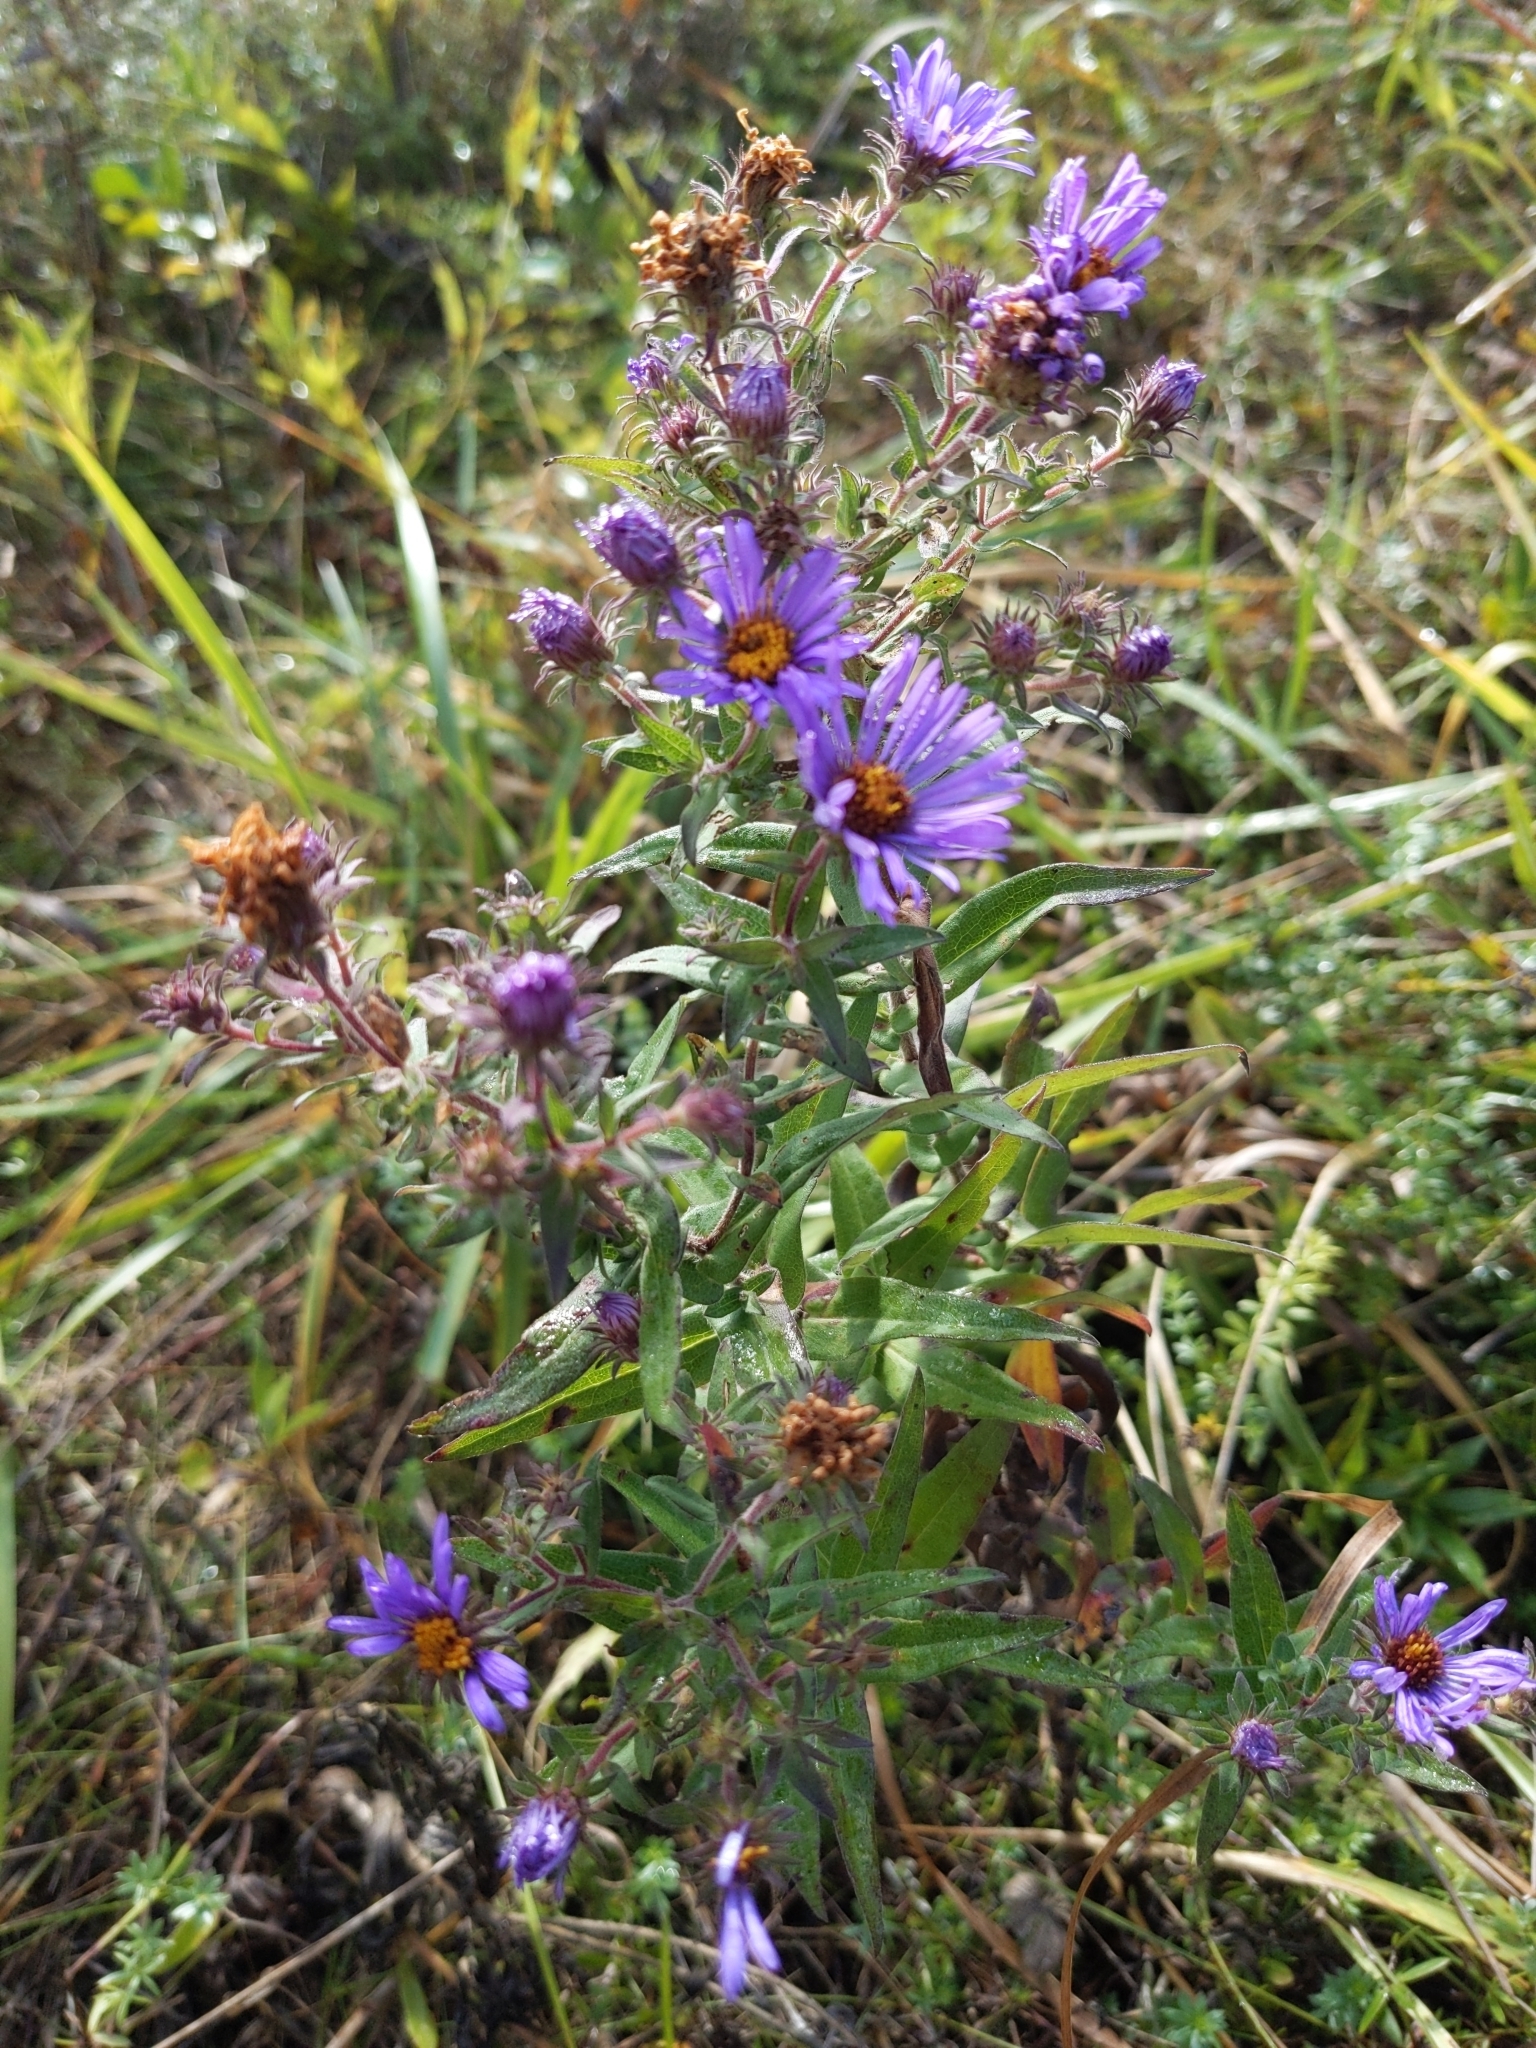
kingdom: Plantae
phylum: Tracheophyta
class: Magnoliopsida
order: Asterales
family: Asteraceae
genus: Symphyotrichum
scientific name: Symphyotrichum novae-angliae
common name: Michaelmas daisy
